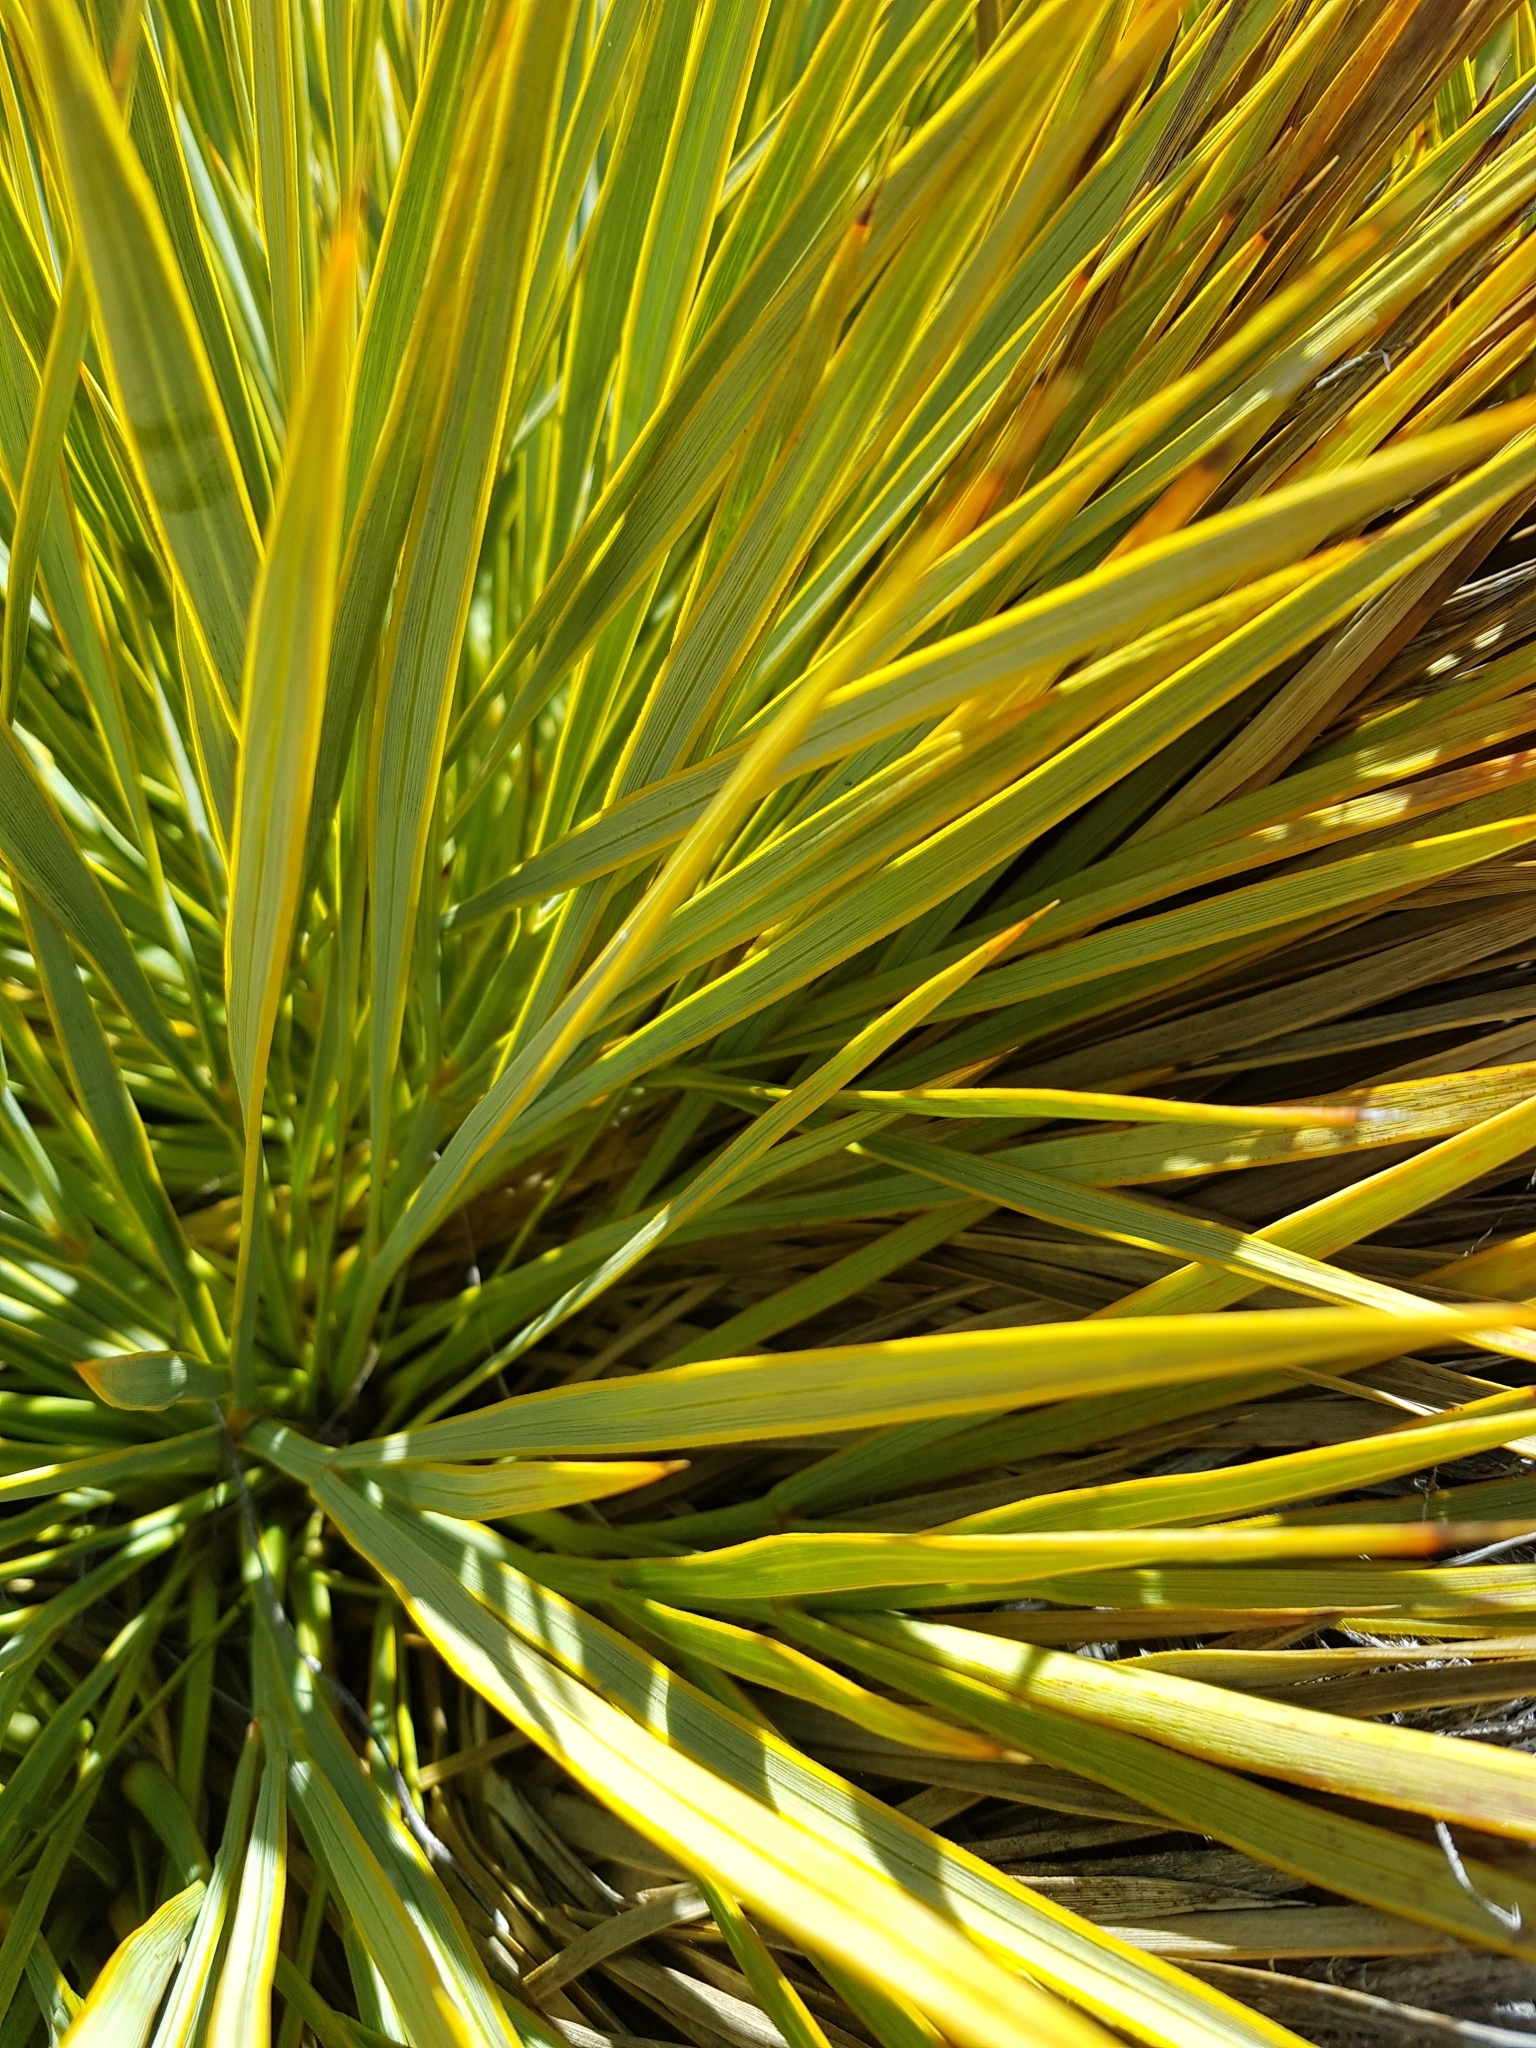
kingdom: Plantae
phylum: Tracheophyta
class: Magnoliopsida
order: Apiales
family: Apiaceae
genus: Aciphylla
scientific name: Aciphylla aurea
